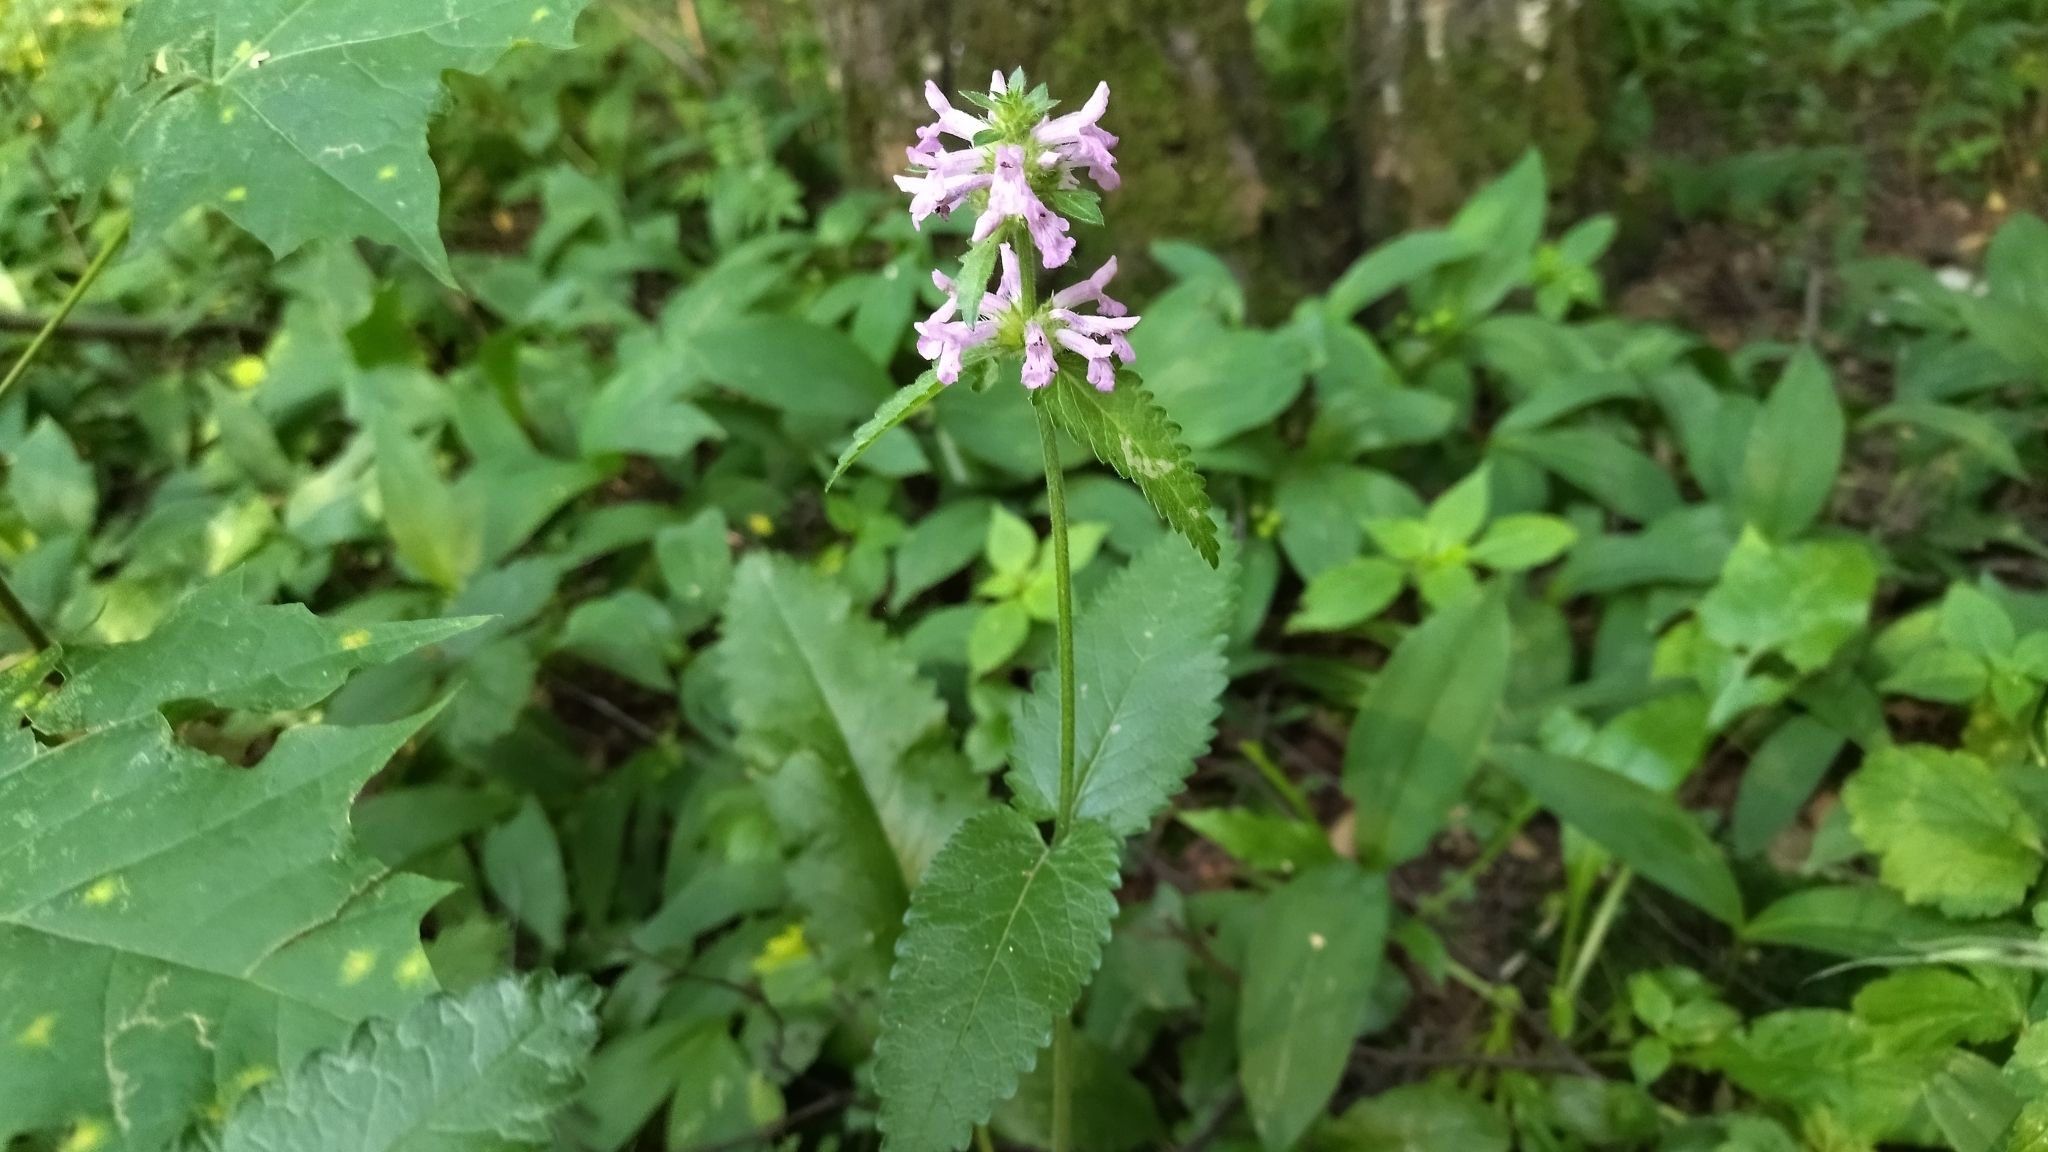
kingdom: Plantae
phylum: Tracheophyta
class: Magnoliopsida
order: Lamiales
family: Lamiaceae
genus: Betonica
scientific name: Betonica officinalis
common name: Bishop's-wort
